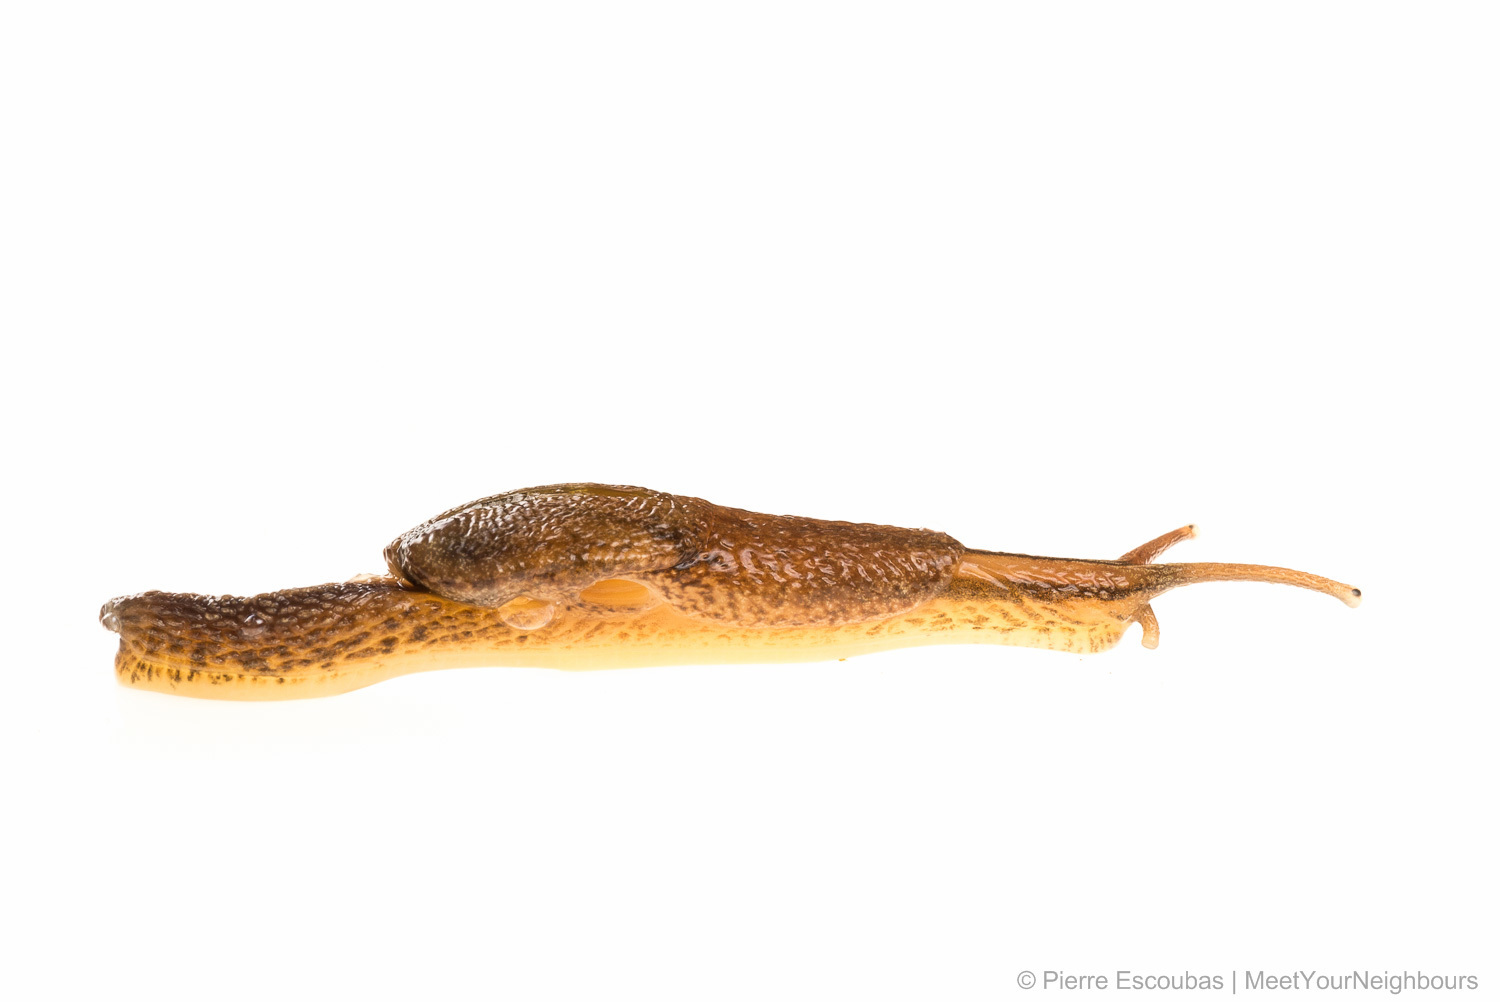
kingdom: Animalia
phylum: Mollusca
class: Gastropoda
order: Stylommatophora
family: Ariophantidae
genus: Microparmarion
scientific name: Microparmarion sallehi
